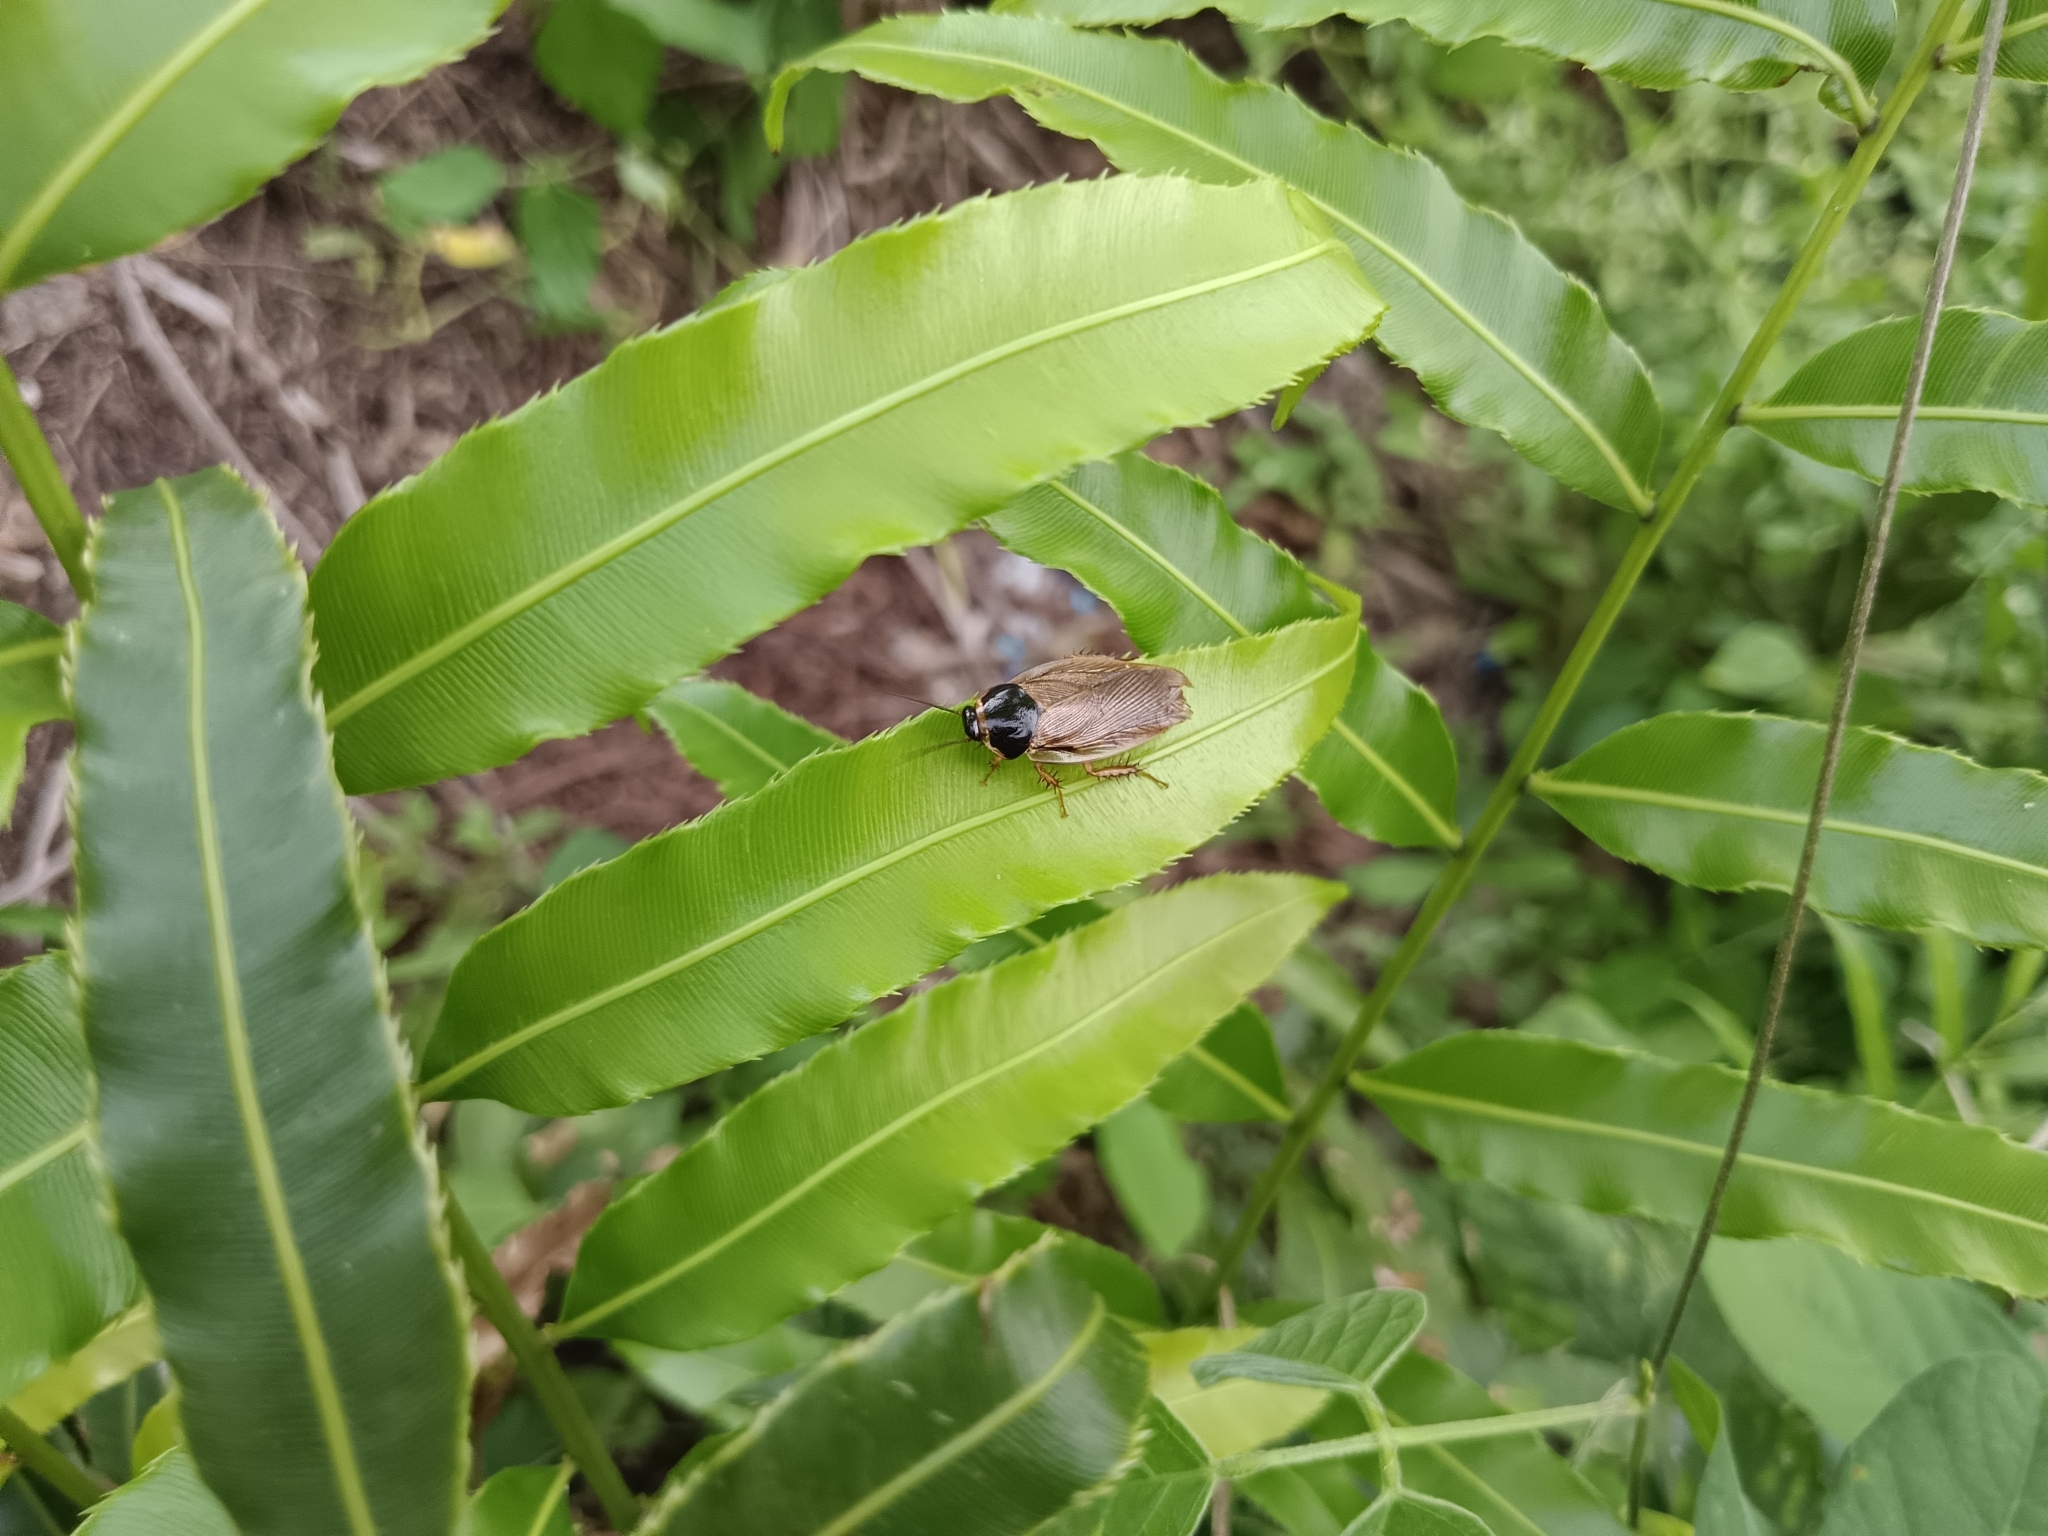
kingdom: Animalia
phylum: Arthropoda
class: Insecta
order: Blattodea
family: Blaberidae
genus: Pycnoscelus
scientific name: Pycnoscelus indicus
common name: Burrowing cockroach
